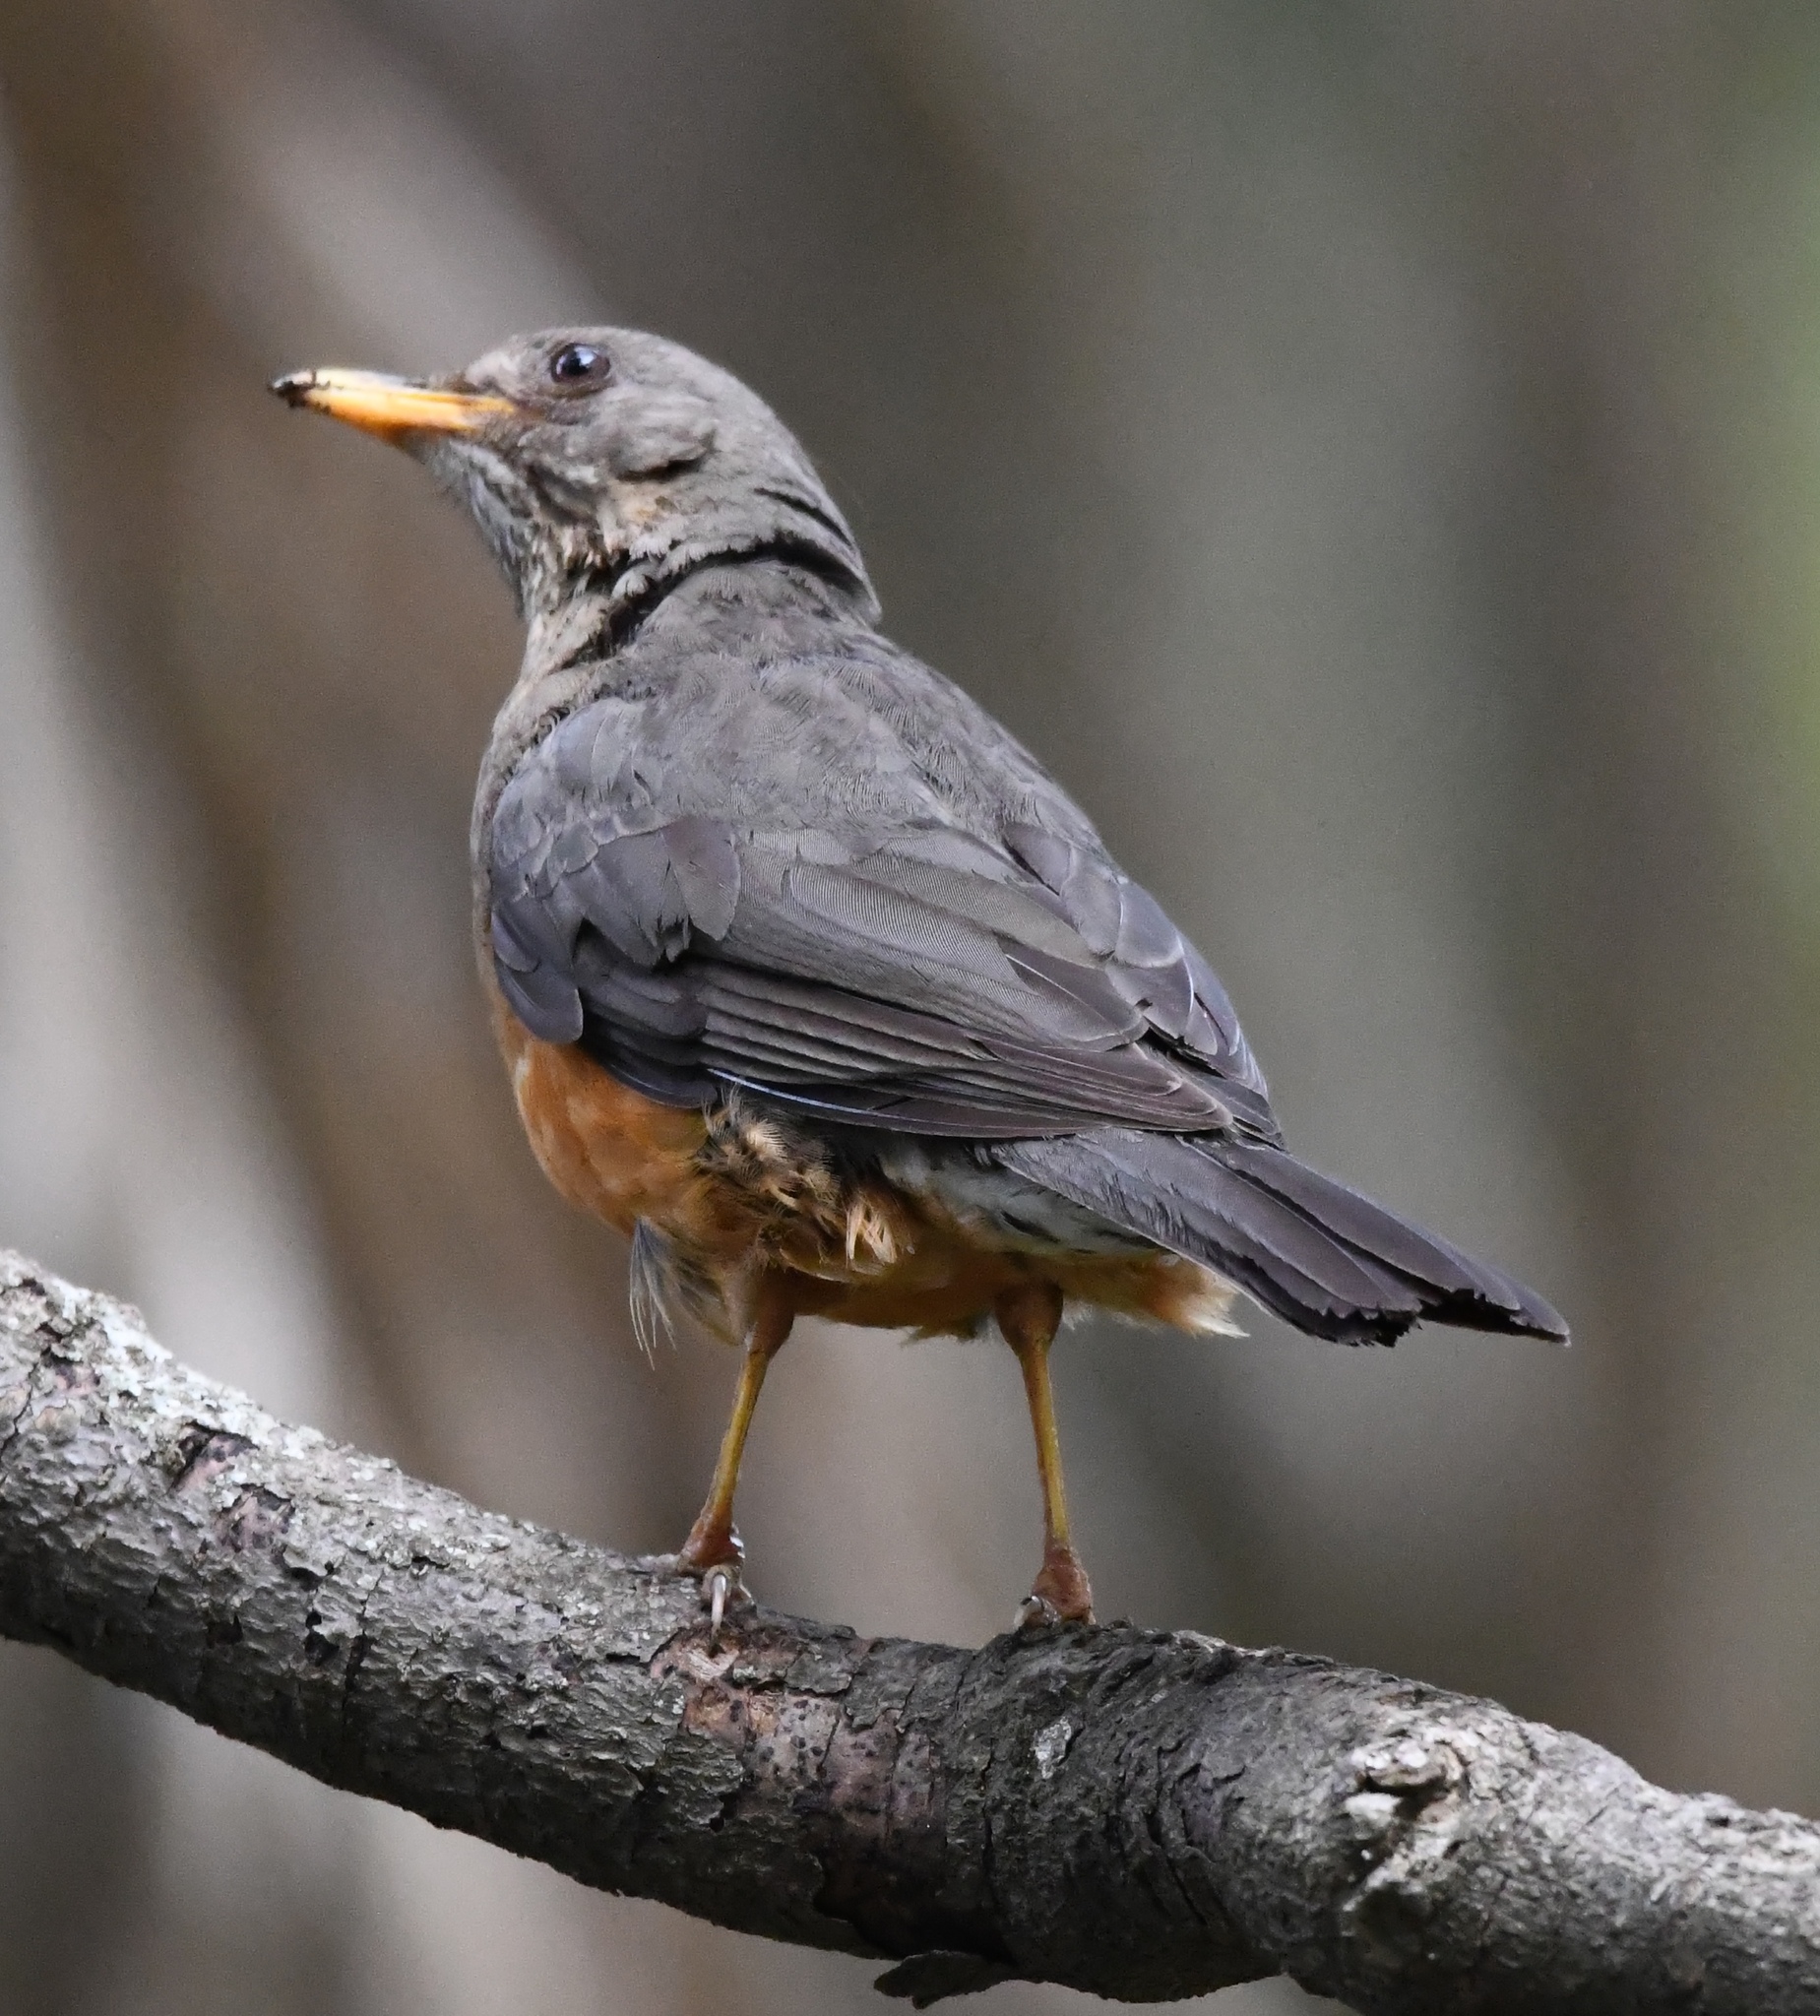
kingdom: Animalia
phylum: Chordata
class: Aves
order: Passeriformes
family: Turdidae
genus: Turdus
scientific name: Turdus olivaceus
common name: Olive thrush
